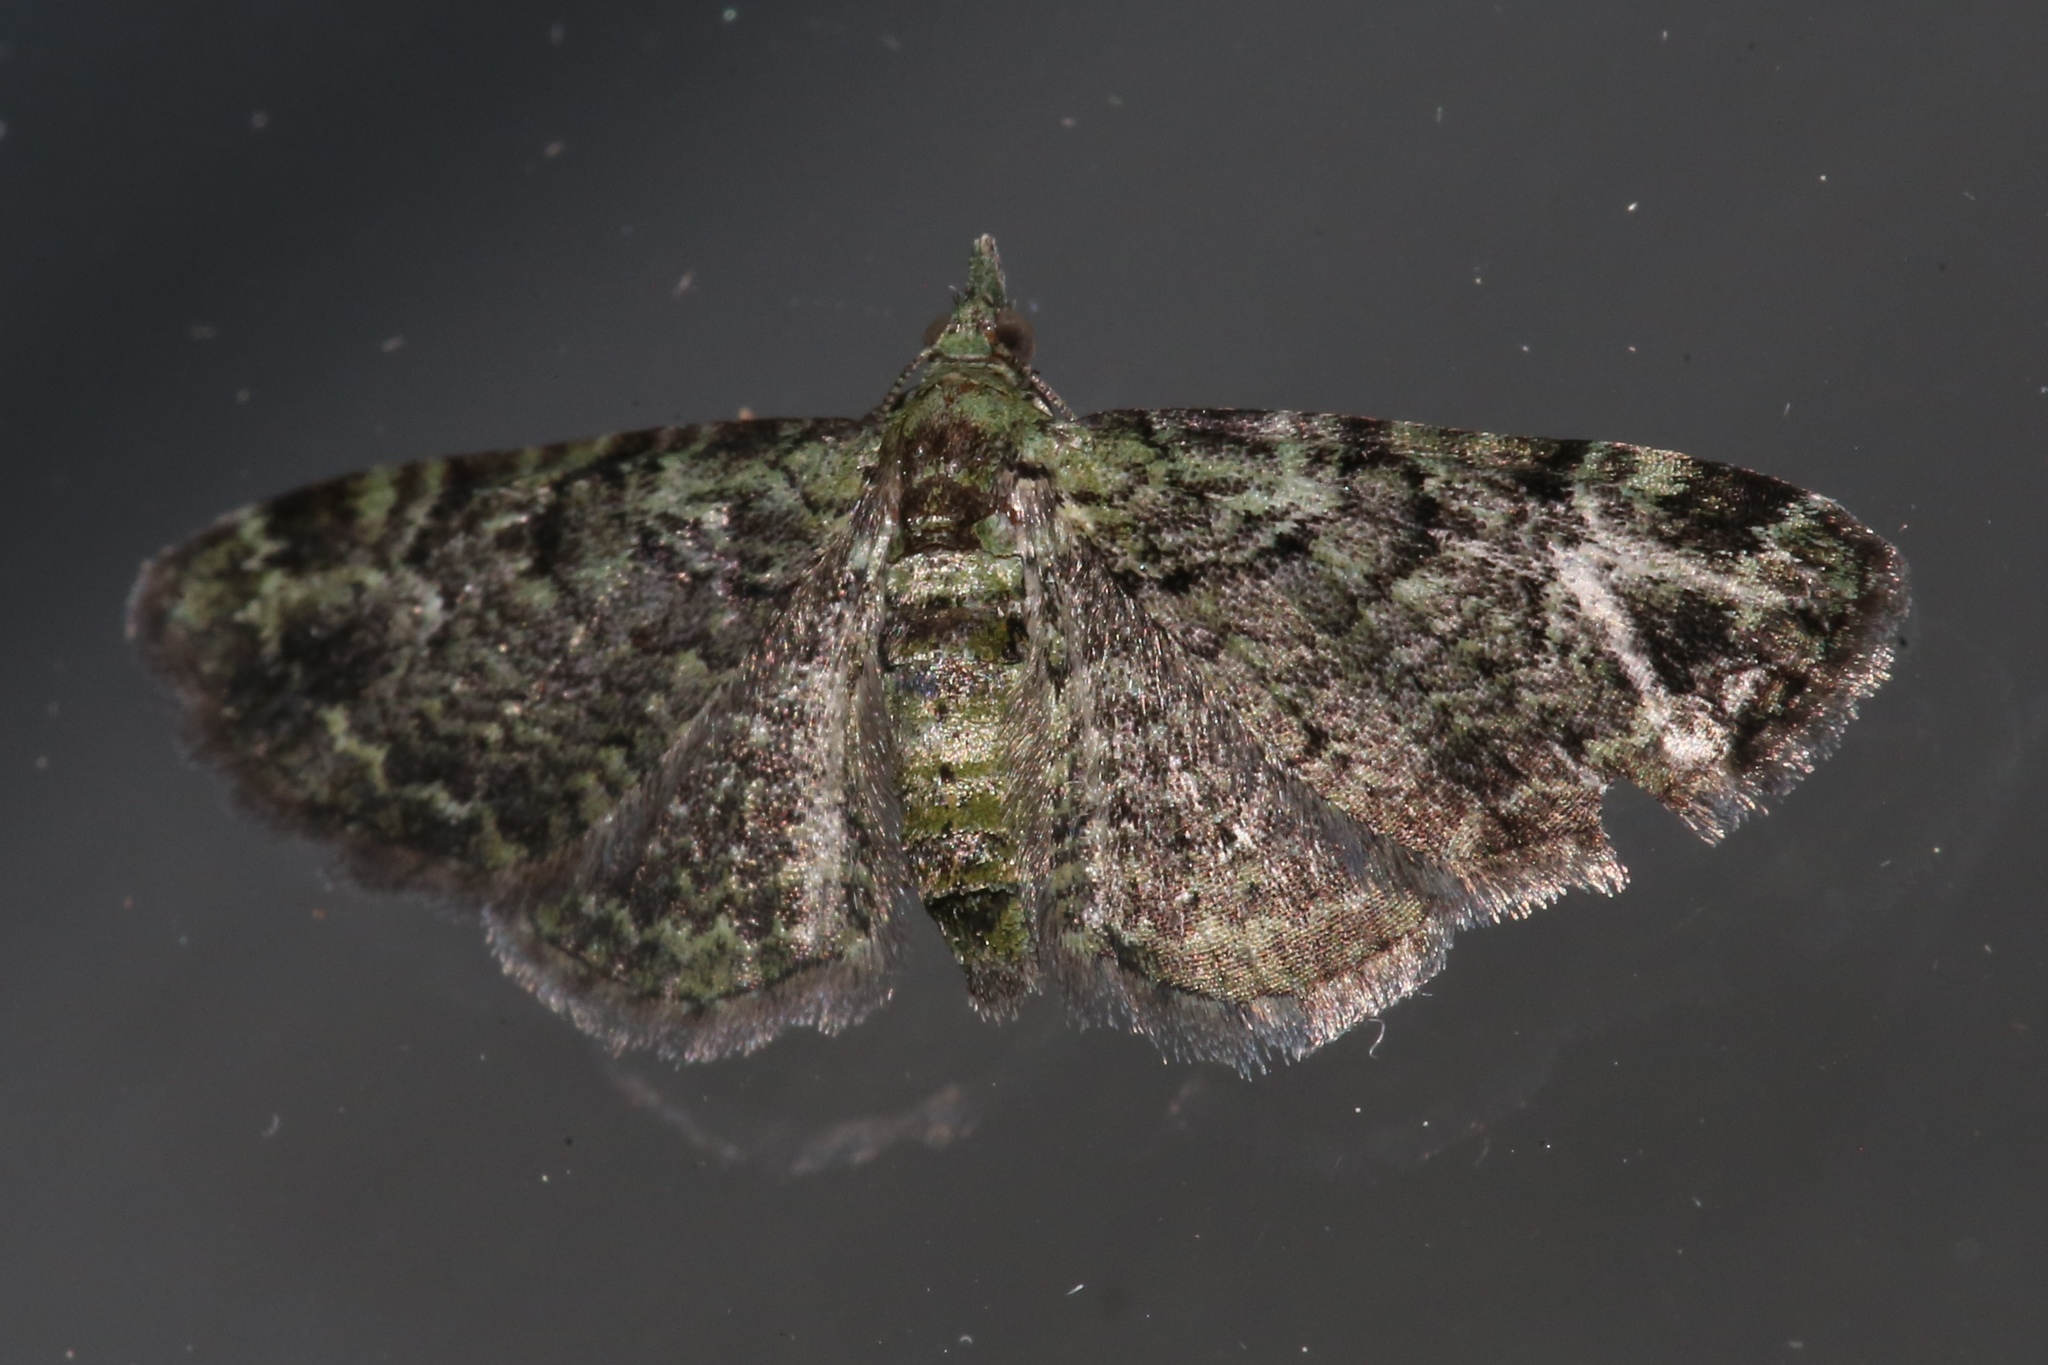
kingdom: Animalia
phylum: Arthropoda
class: Insecta
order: Lepidoptera
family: Geometridae
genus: Pasiphila
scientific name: Pasiphila rectangulata
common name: Green pug
